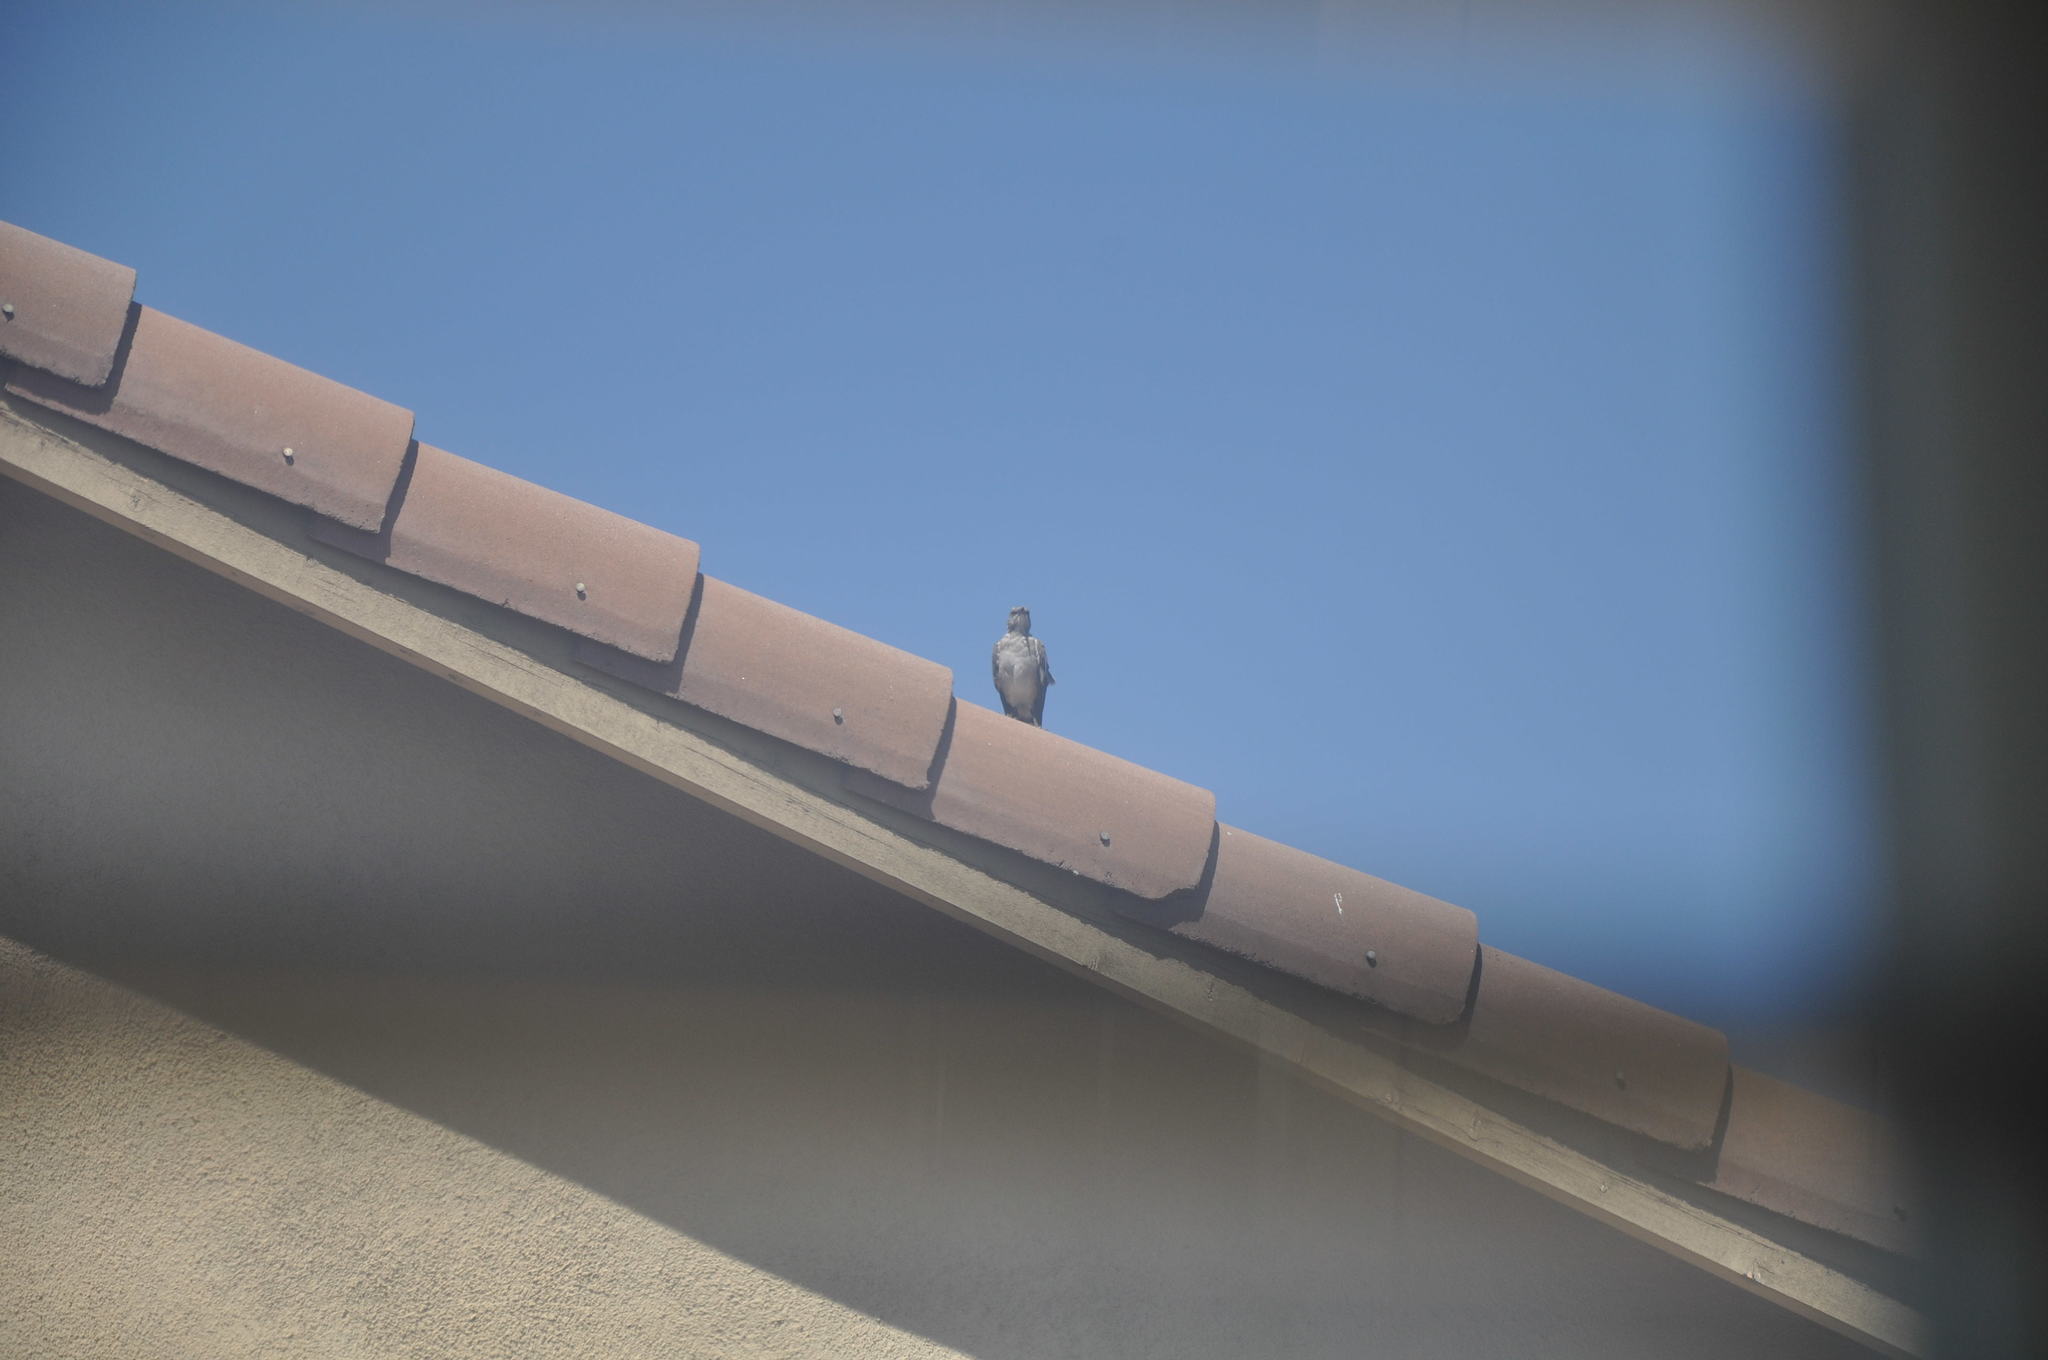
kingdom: Animalia
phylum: Chordata
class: Aves
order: Passeriformes
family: Mimidae
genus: Mimus
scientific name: Mimus polyglottos
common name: Northern mockingbird
